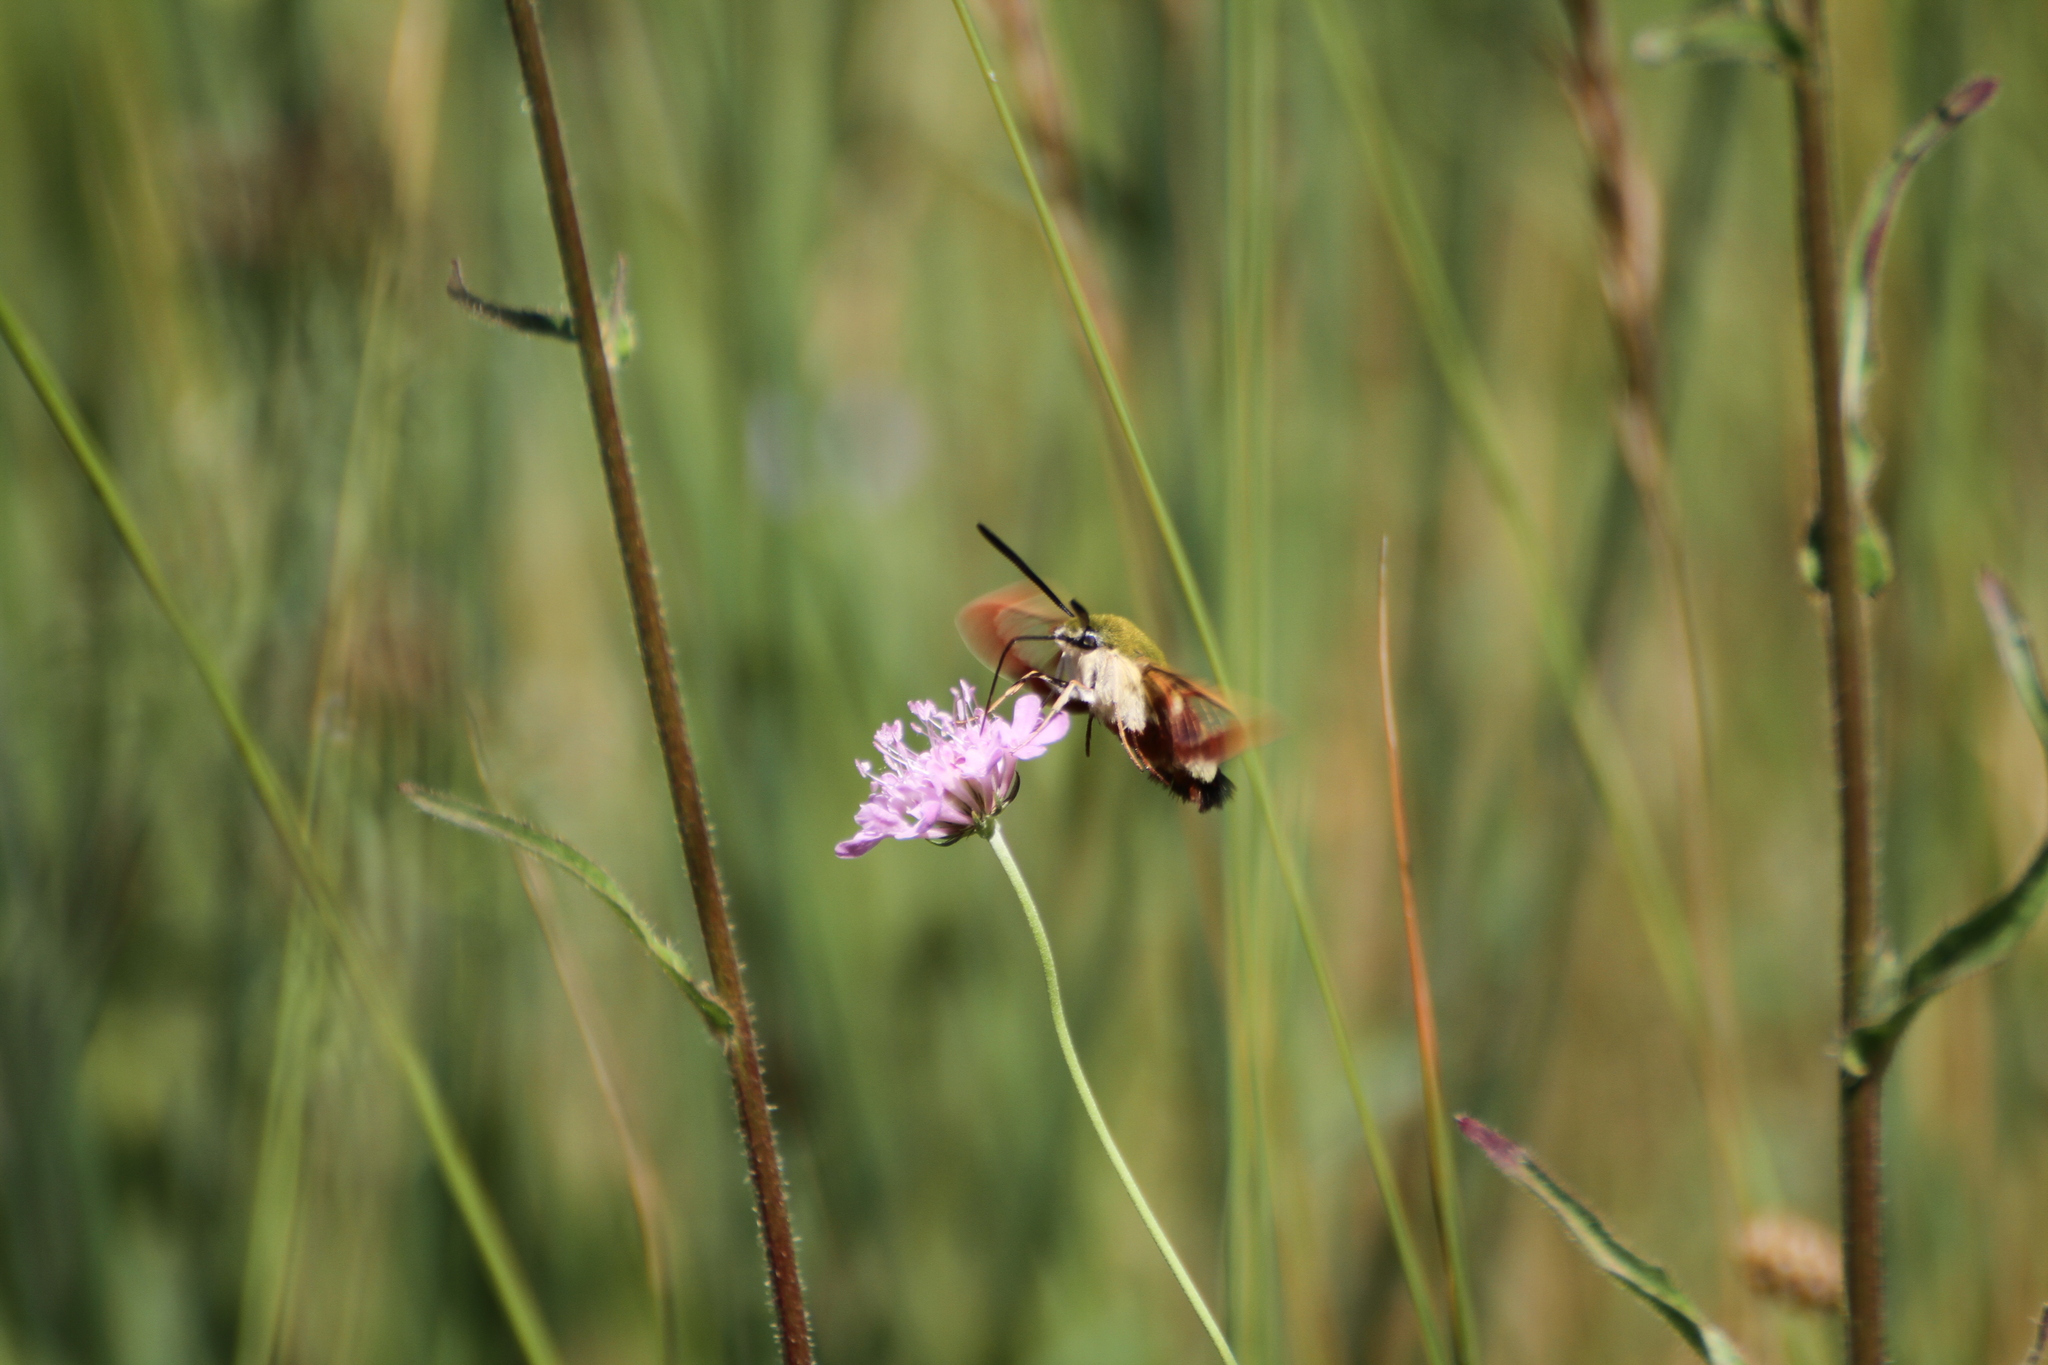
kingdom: Animalia
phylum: Arthropoda
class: Insecta
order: Lepidoptera
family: Sphingidae
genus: Hemaris
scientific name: Hemaris fuciformis
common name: Broad-bordered bee hawk-moth
